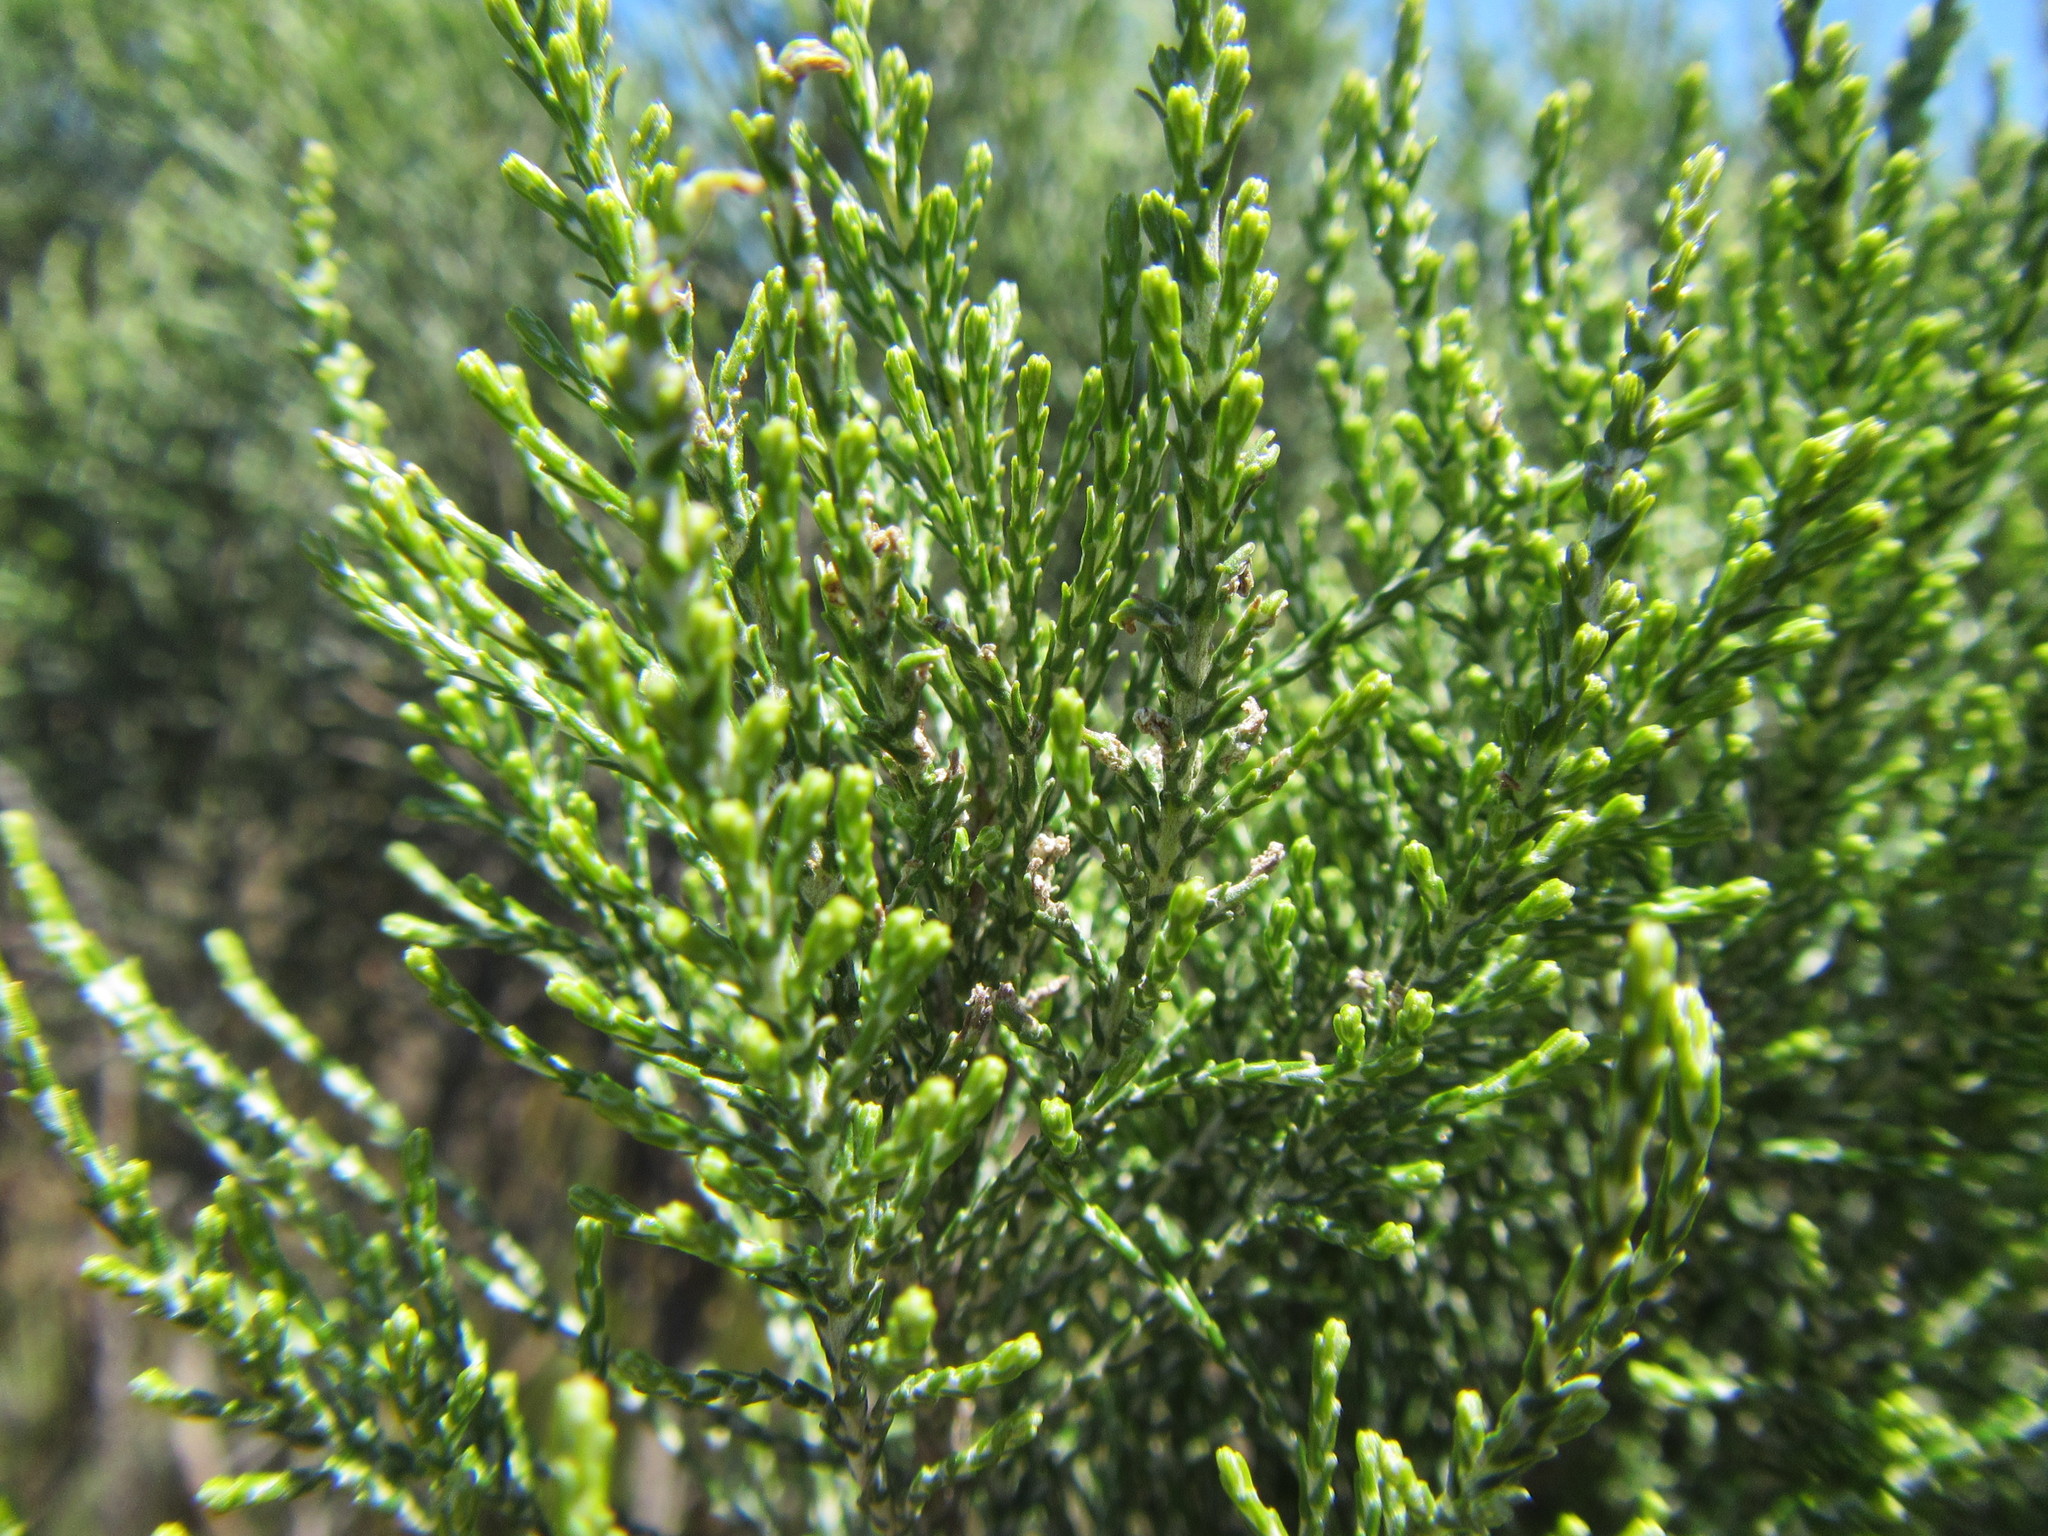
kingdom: Plantae
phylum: Tracheophyta
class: Magnoliopsida
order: Asterales
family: Asteraceae
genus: Dicerothamnus
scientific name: Dicerothamnus rhinocerotis
